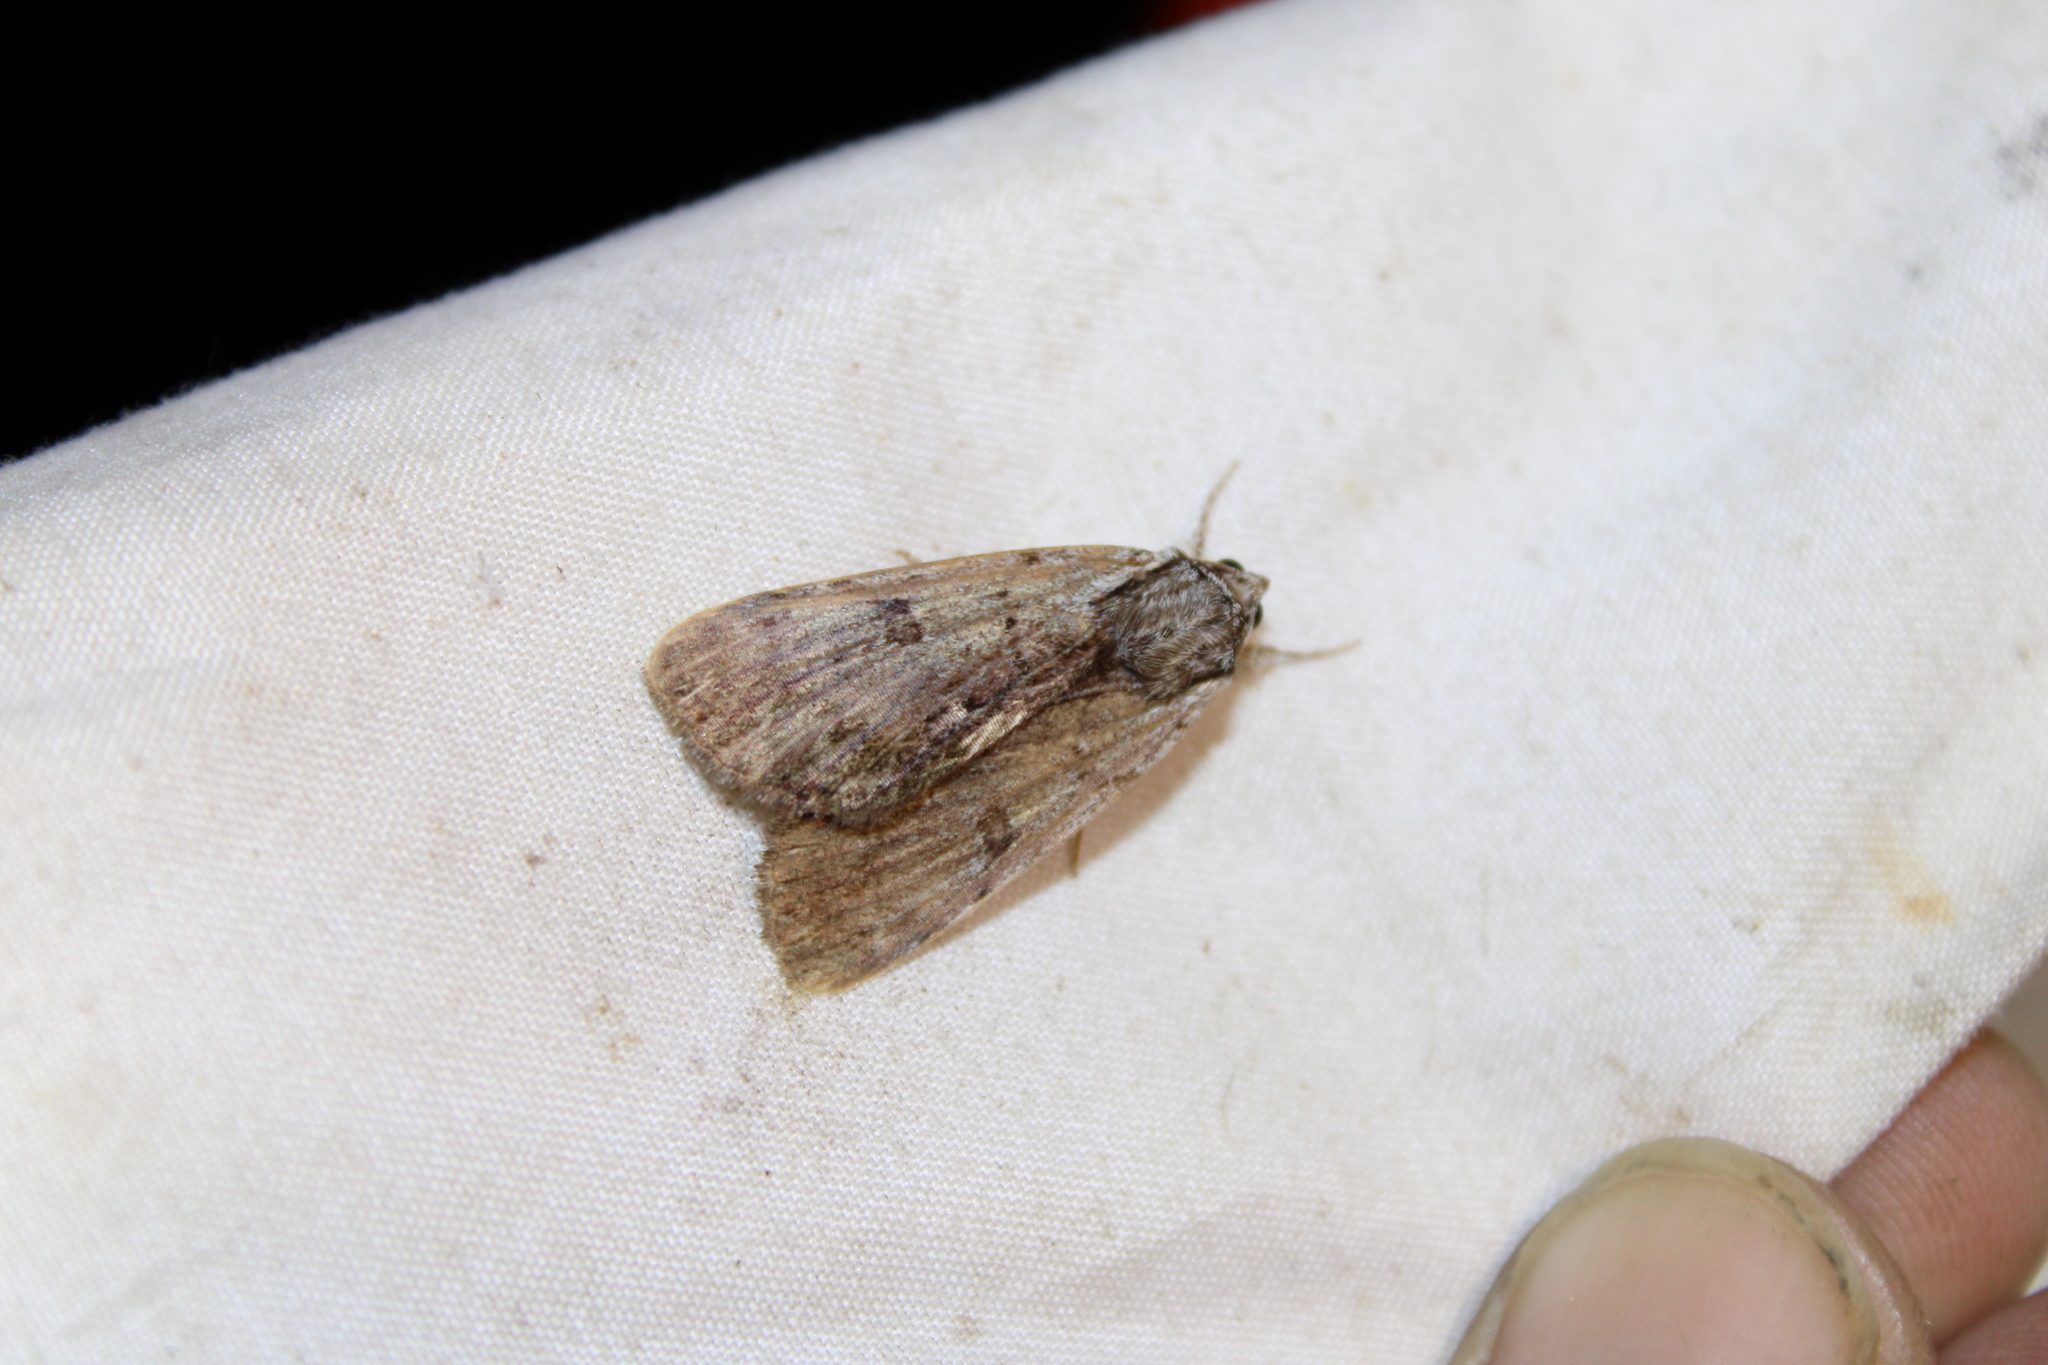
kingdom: Animalia
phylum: Arthropoda
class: Insecta
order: Lepidoptera
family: Erebidae
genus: Catocala
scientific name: Catocala sordida
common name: Sordid underwing
